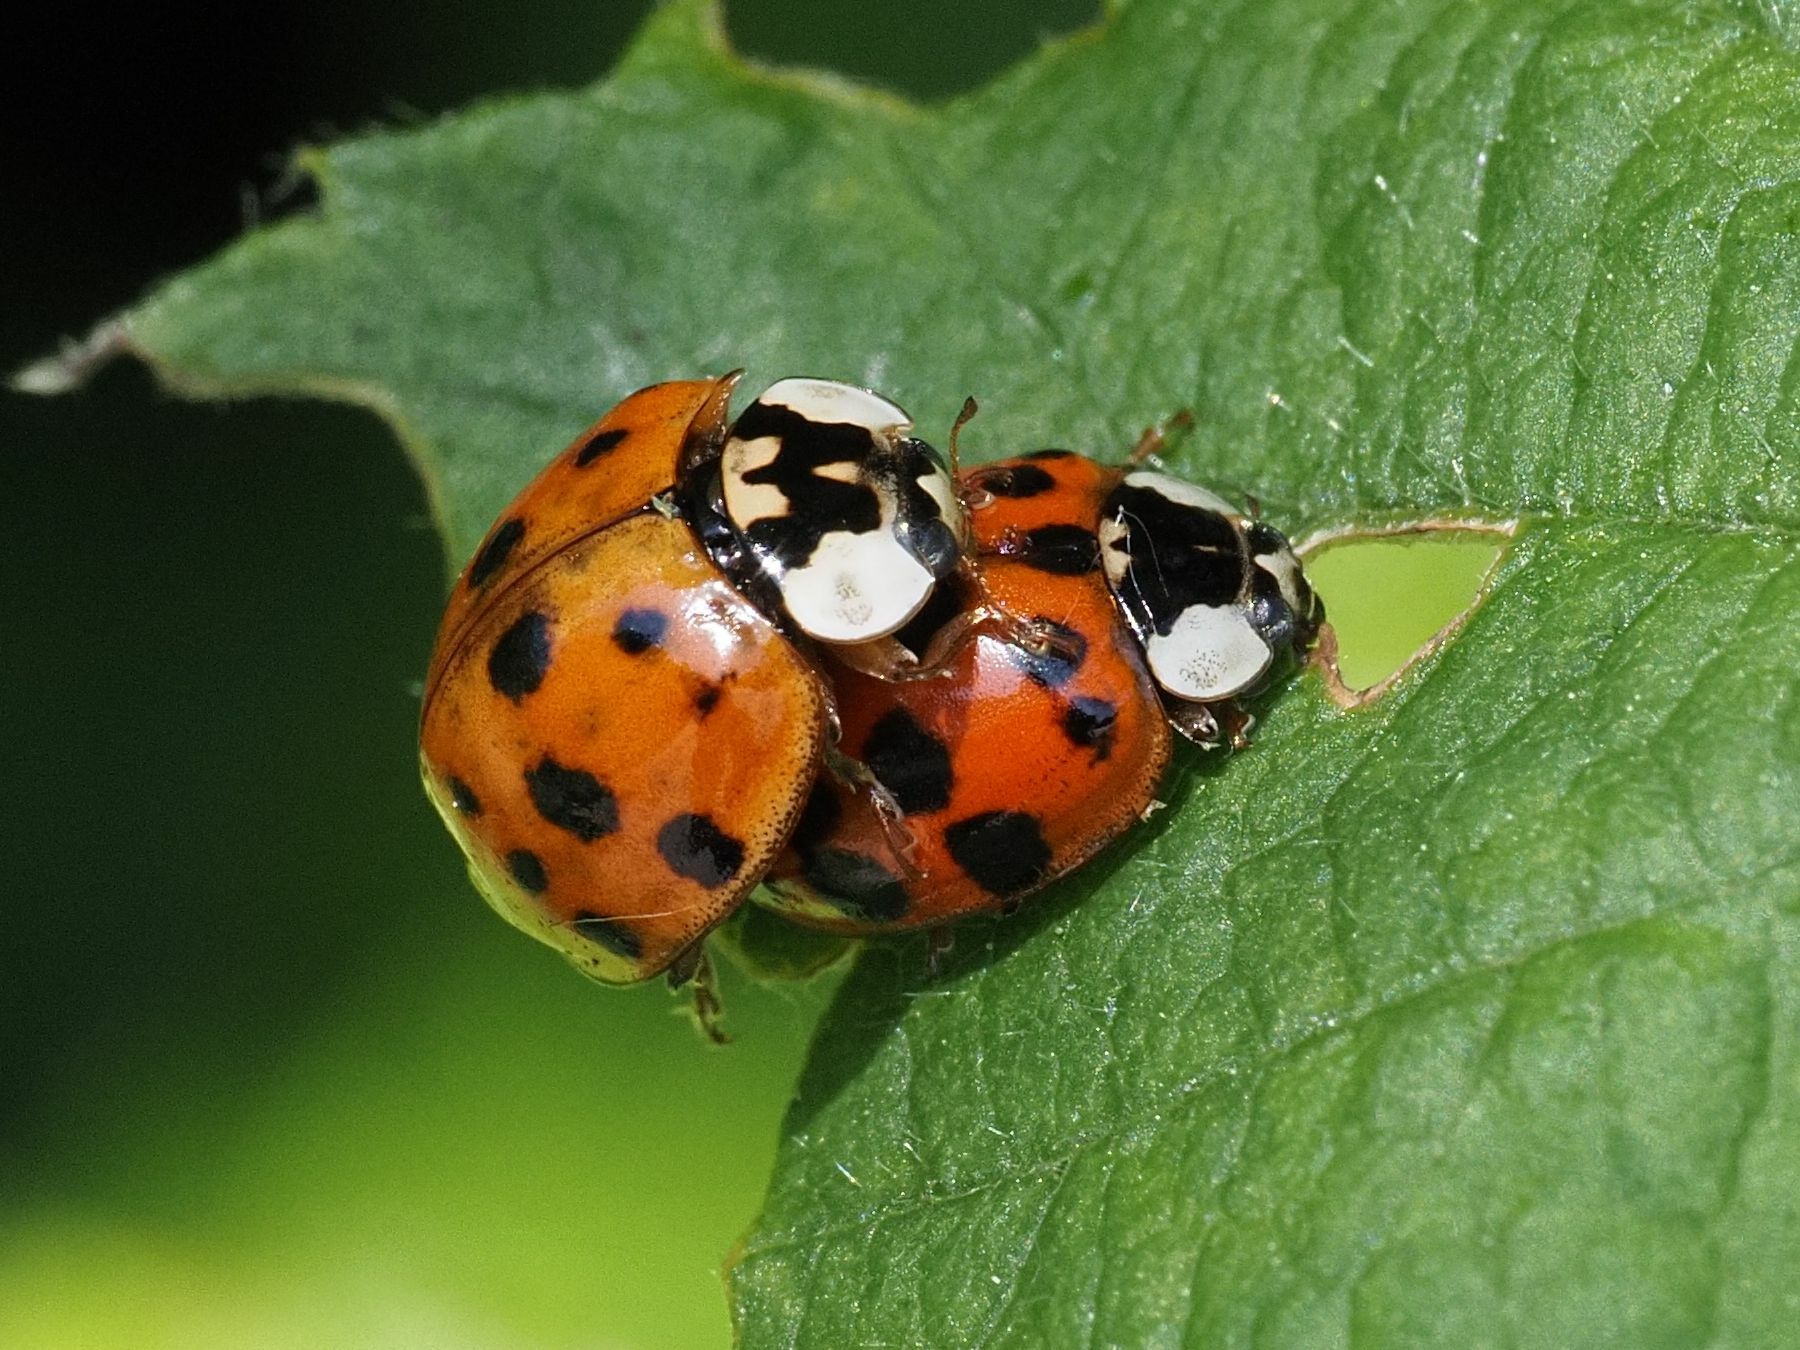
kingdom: Animalia
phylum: Arthropoda
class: Insecta
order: Coleoptera
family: Coccinellidae
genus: Harmonia
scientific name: Harmonia axyridis
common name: Harlequin ladybird
